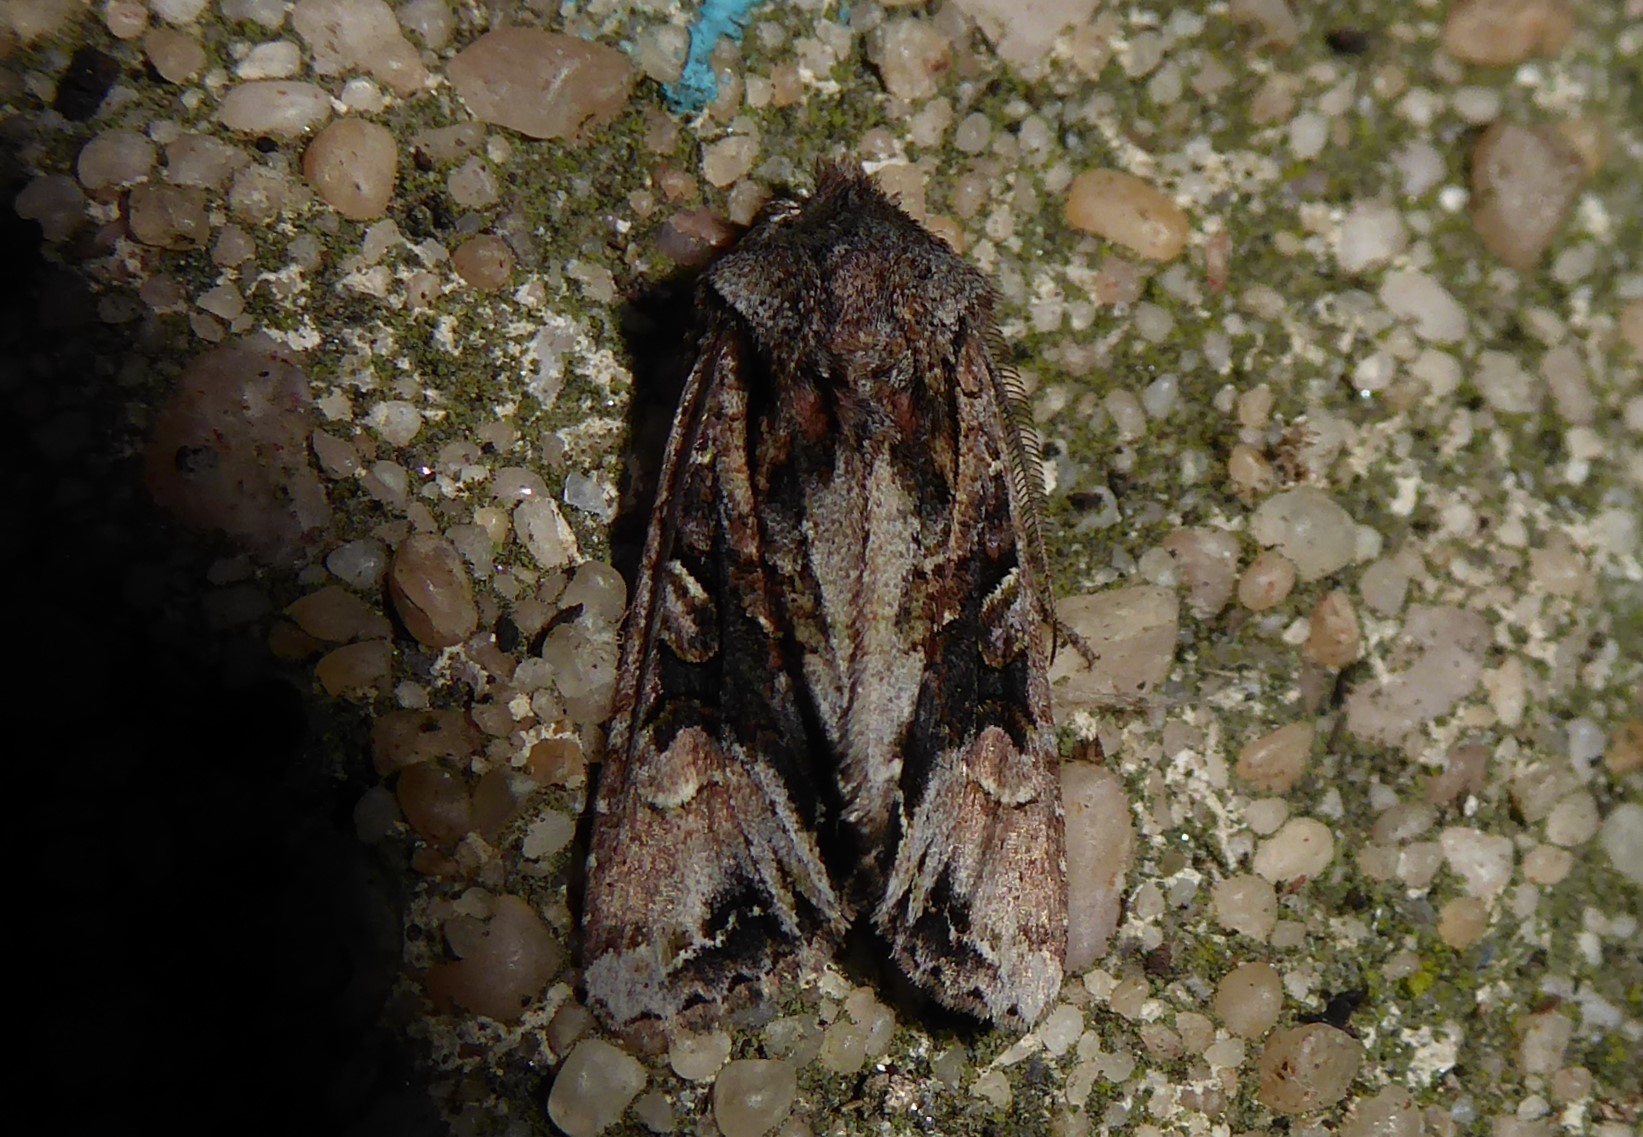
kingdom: Animalia
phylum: Arthropoda
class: Insecta
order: Lepidoptera
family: Noctuidae
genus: Ichneutica
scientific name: Ichneutica
